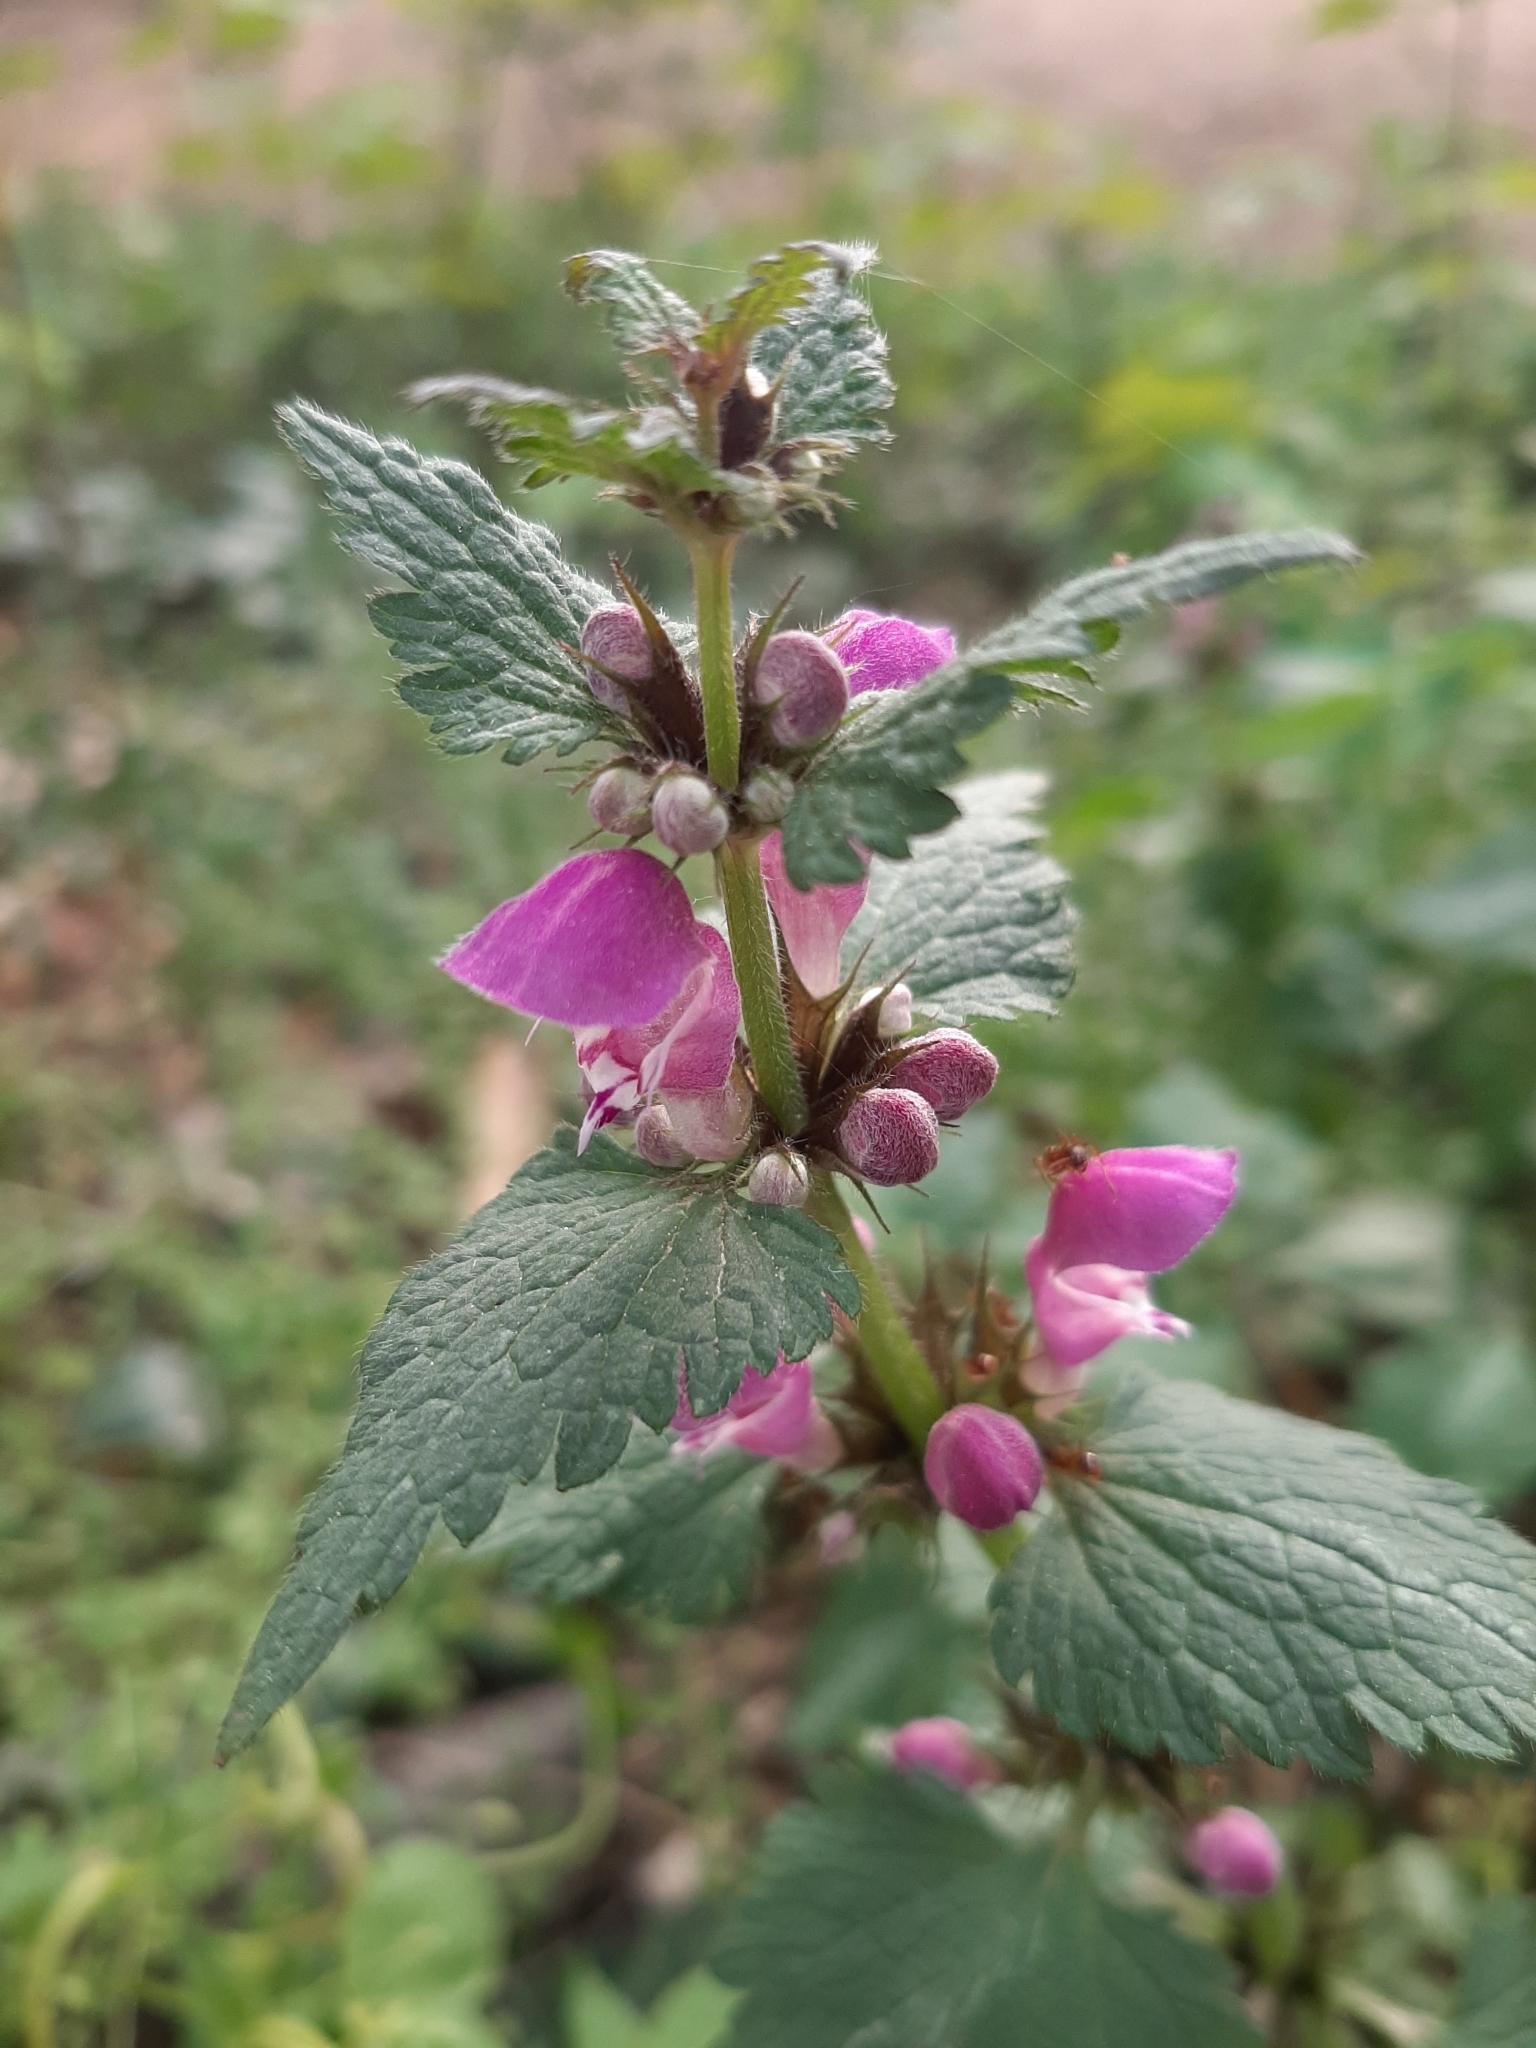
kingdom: Plantae
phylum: Tracheophyta
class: Magnoliopsida
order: Lamiales
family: Lamiaceae
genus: Lamium
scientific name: Lamium maculatum
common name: Spotted dead-nettle
